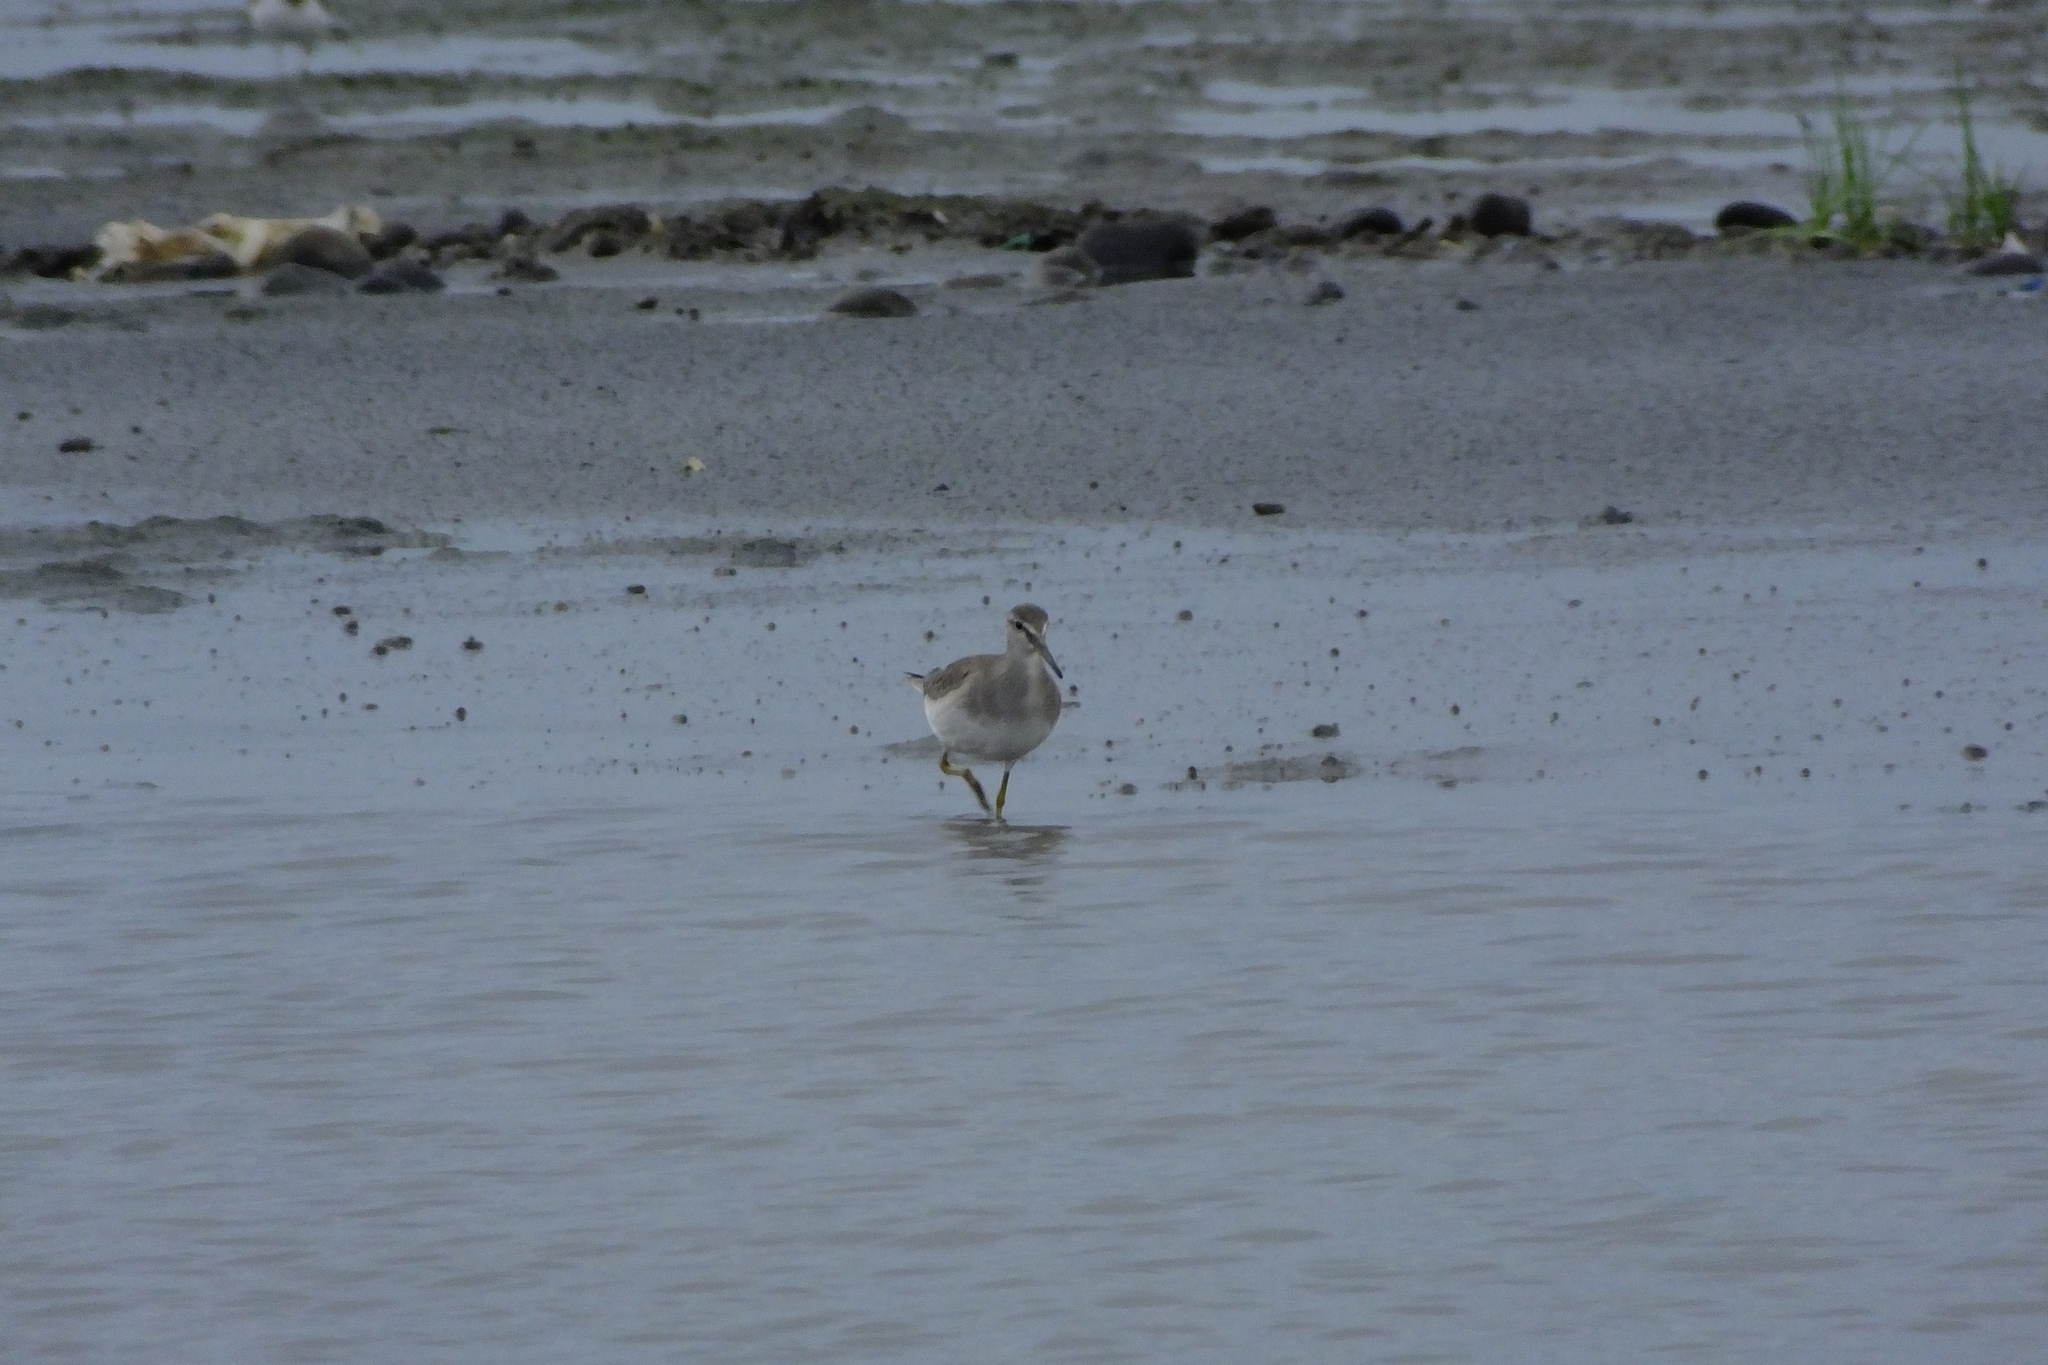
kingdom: Animalia
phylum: Chordata
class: Aves
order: Charadriiformes
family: Scolopacidae
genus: Tringa
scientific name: Tringa brevipes
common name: Grey-tailed tattler
